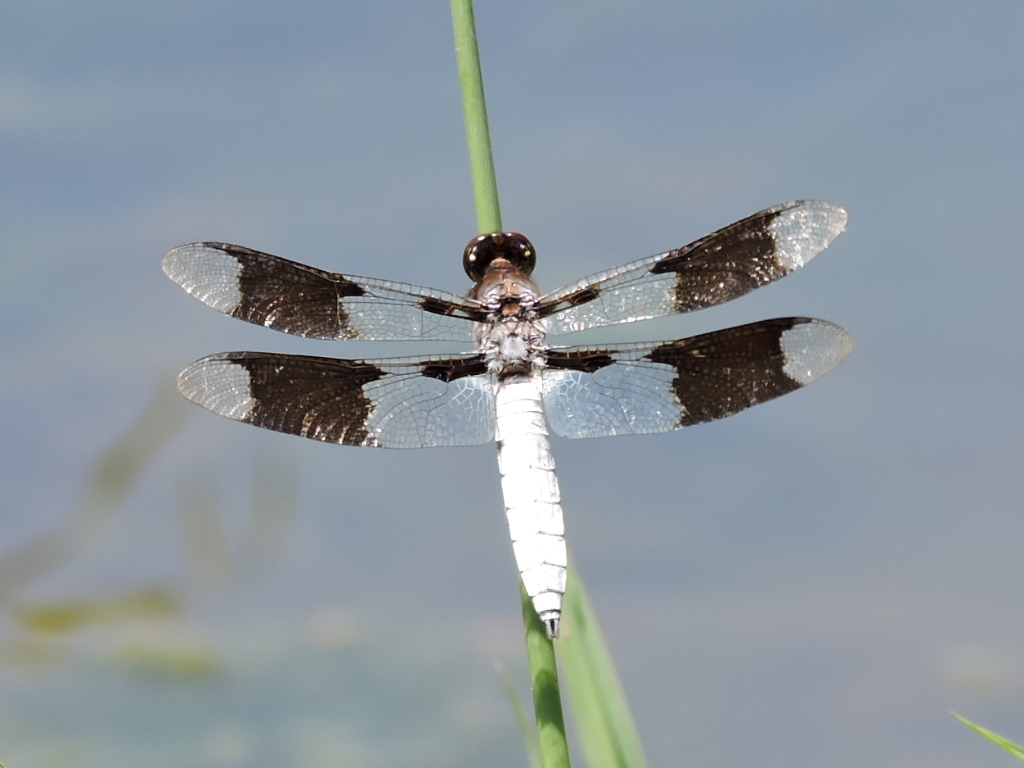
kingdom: Animalia
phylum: Arthropoda
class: Insecta
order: Odonata
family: Libellulidae
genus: Plathemis
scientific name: Plathemis lydia
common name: Common whitetail
